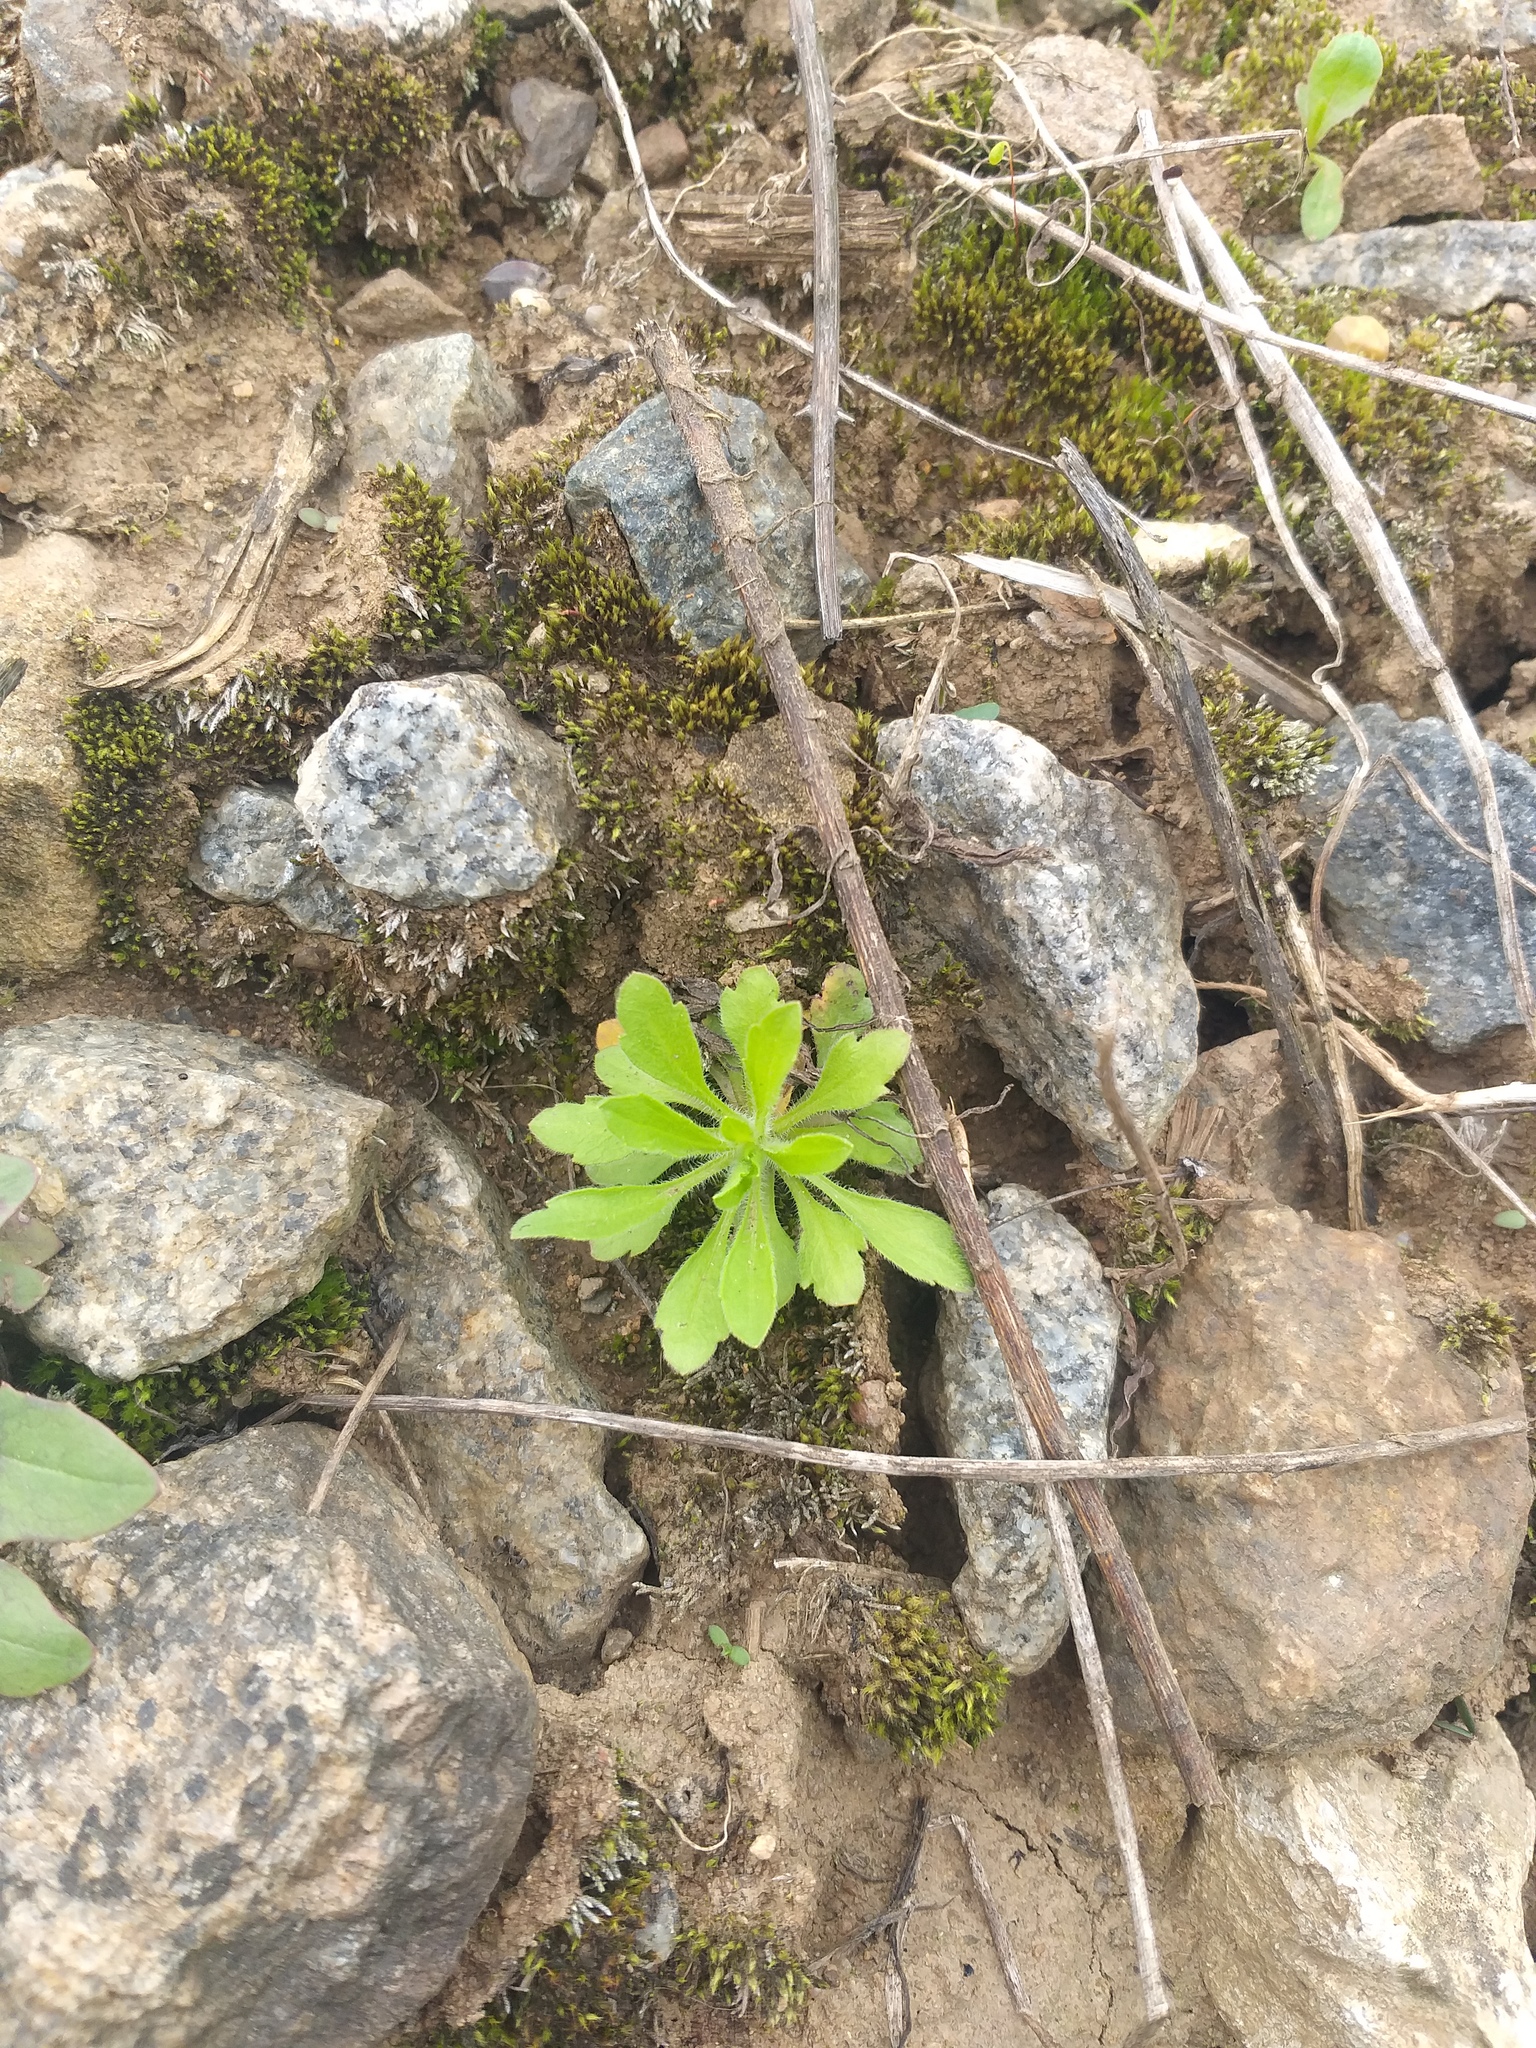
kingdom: Plantae
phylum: Tracheophyta
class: Magnoliopsida
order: Asterales
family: Asteraceae
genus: Erigeron
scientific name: Erigeron canadensis
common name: Canadian fleabane
